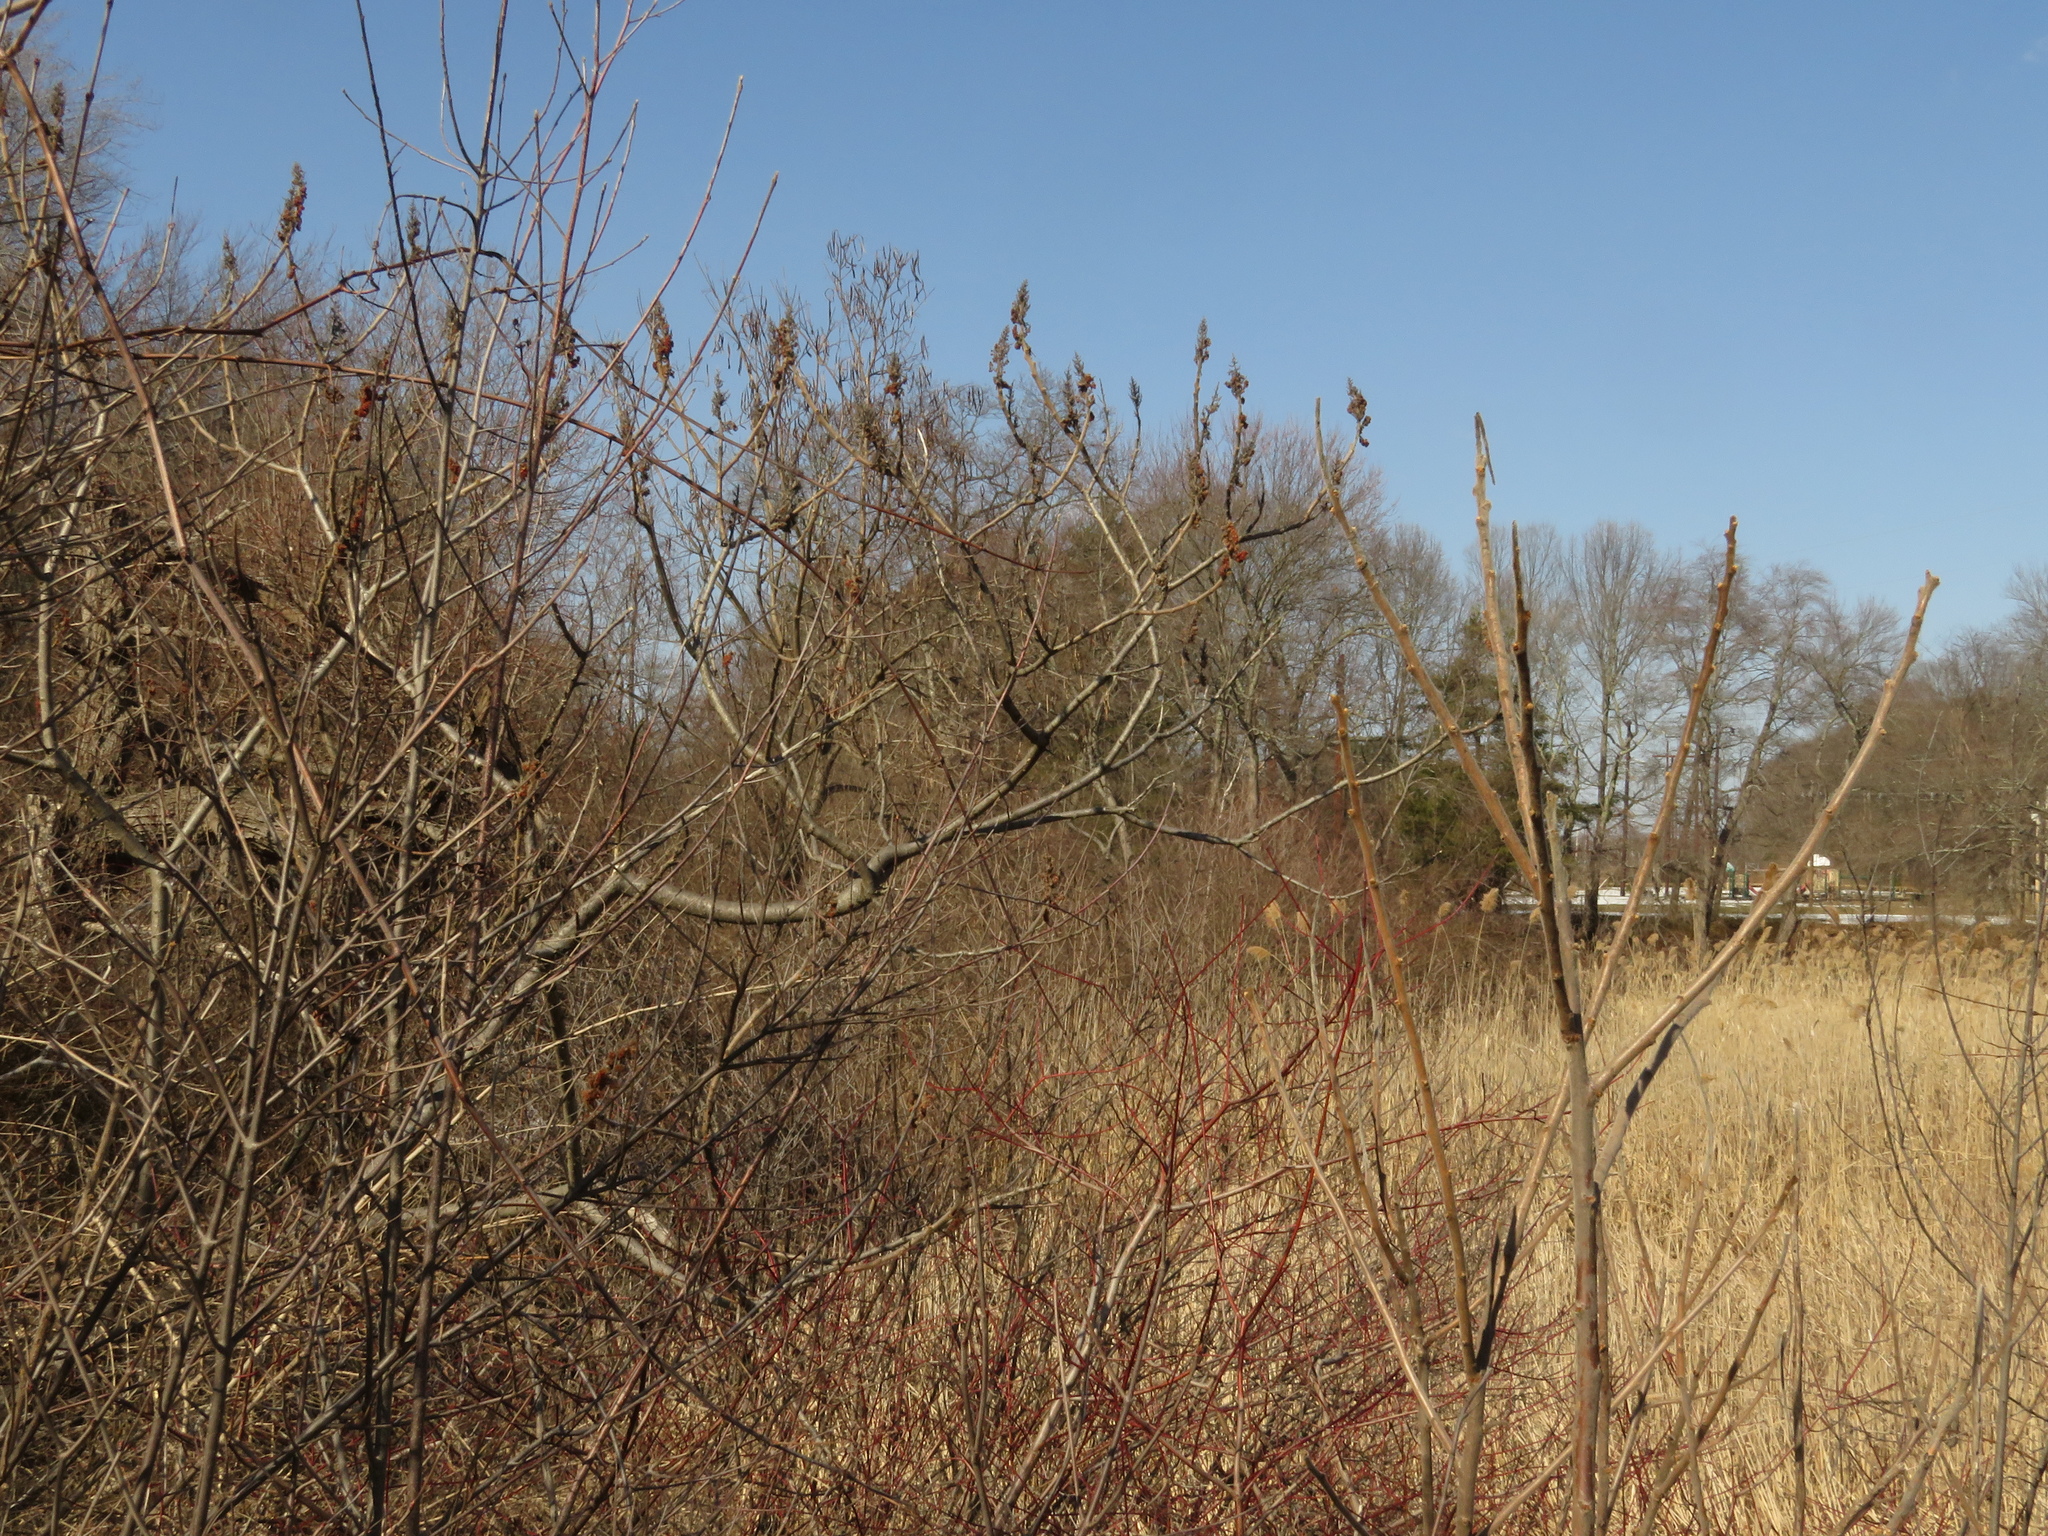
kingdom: Plantae
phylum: Tracheophyta
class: Magnoliopsida
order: Sapindales
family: Anacardiaceae
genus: Rhus
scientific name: Rhus typhina
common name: Staghorn sumac
